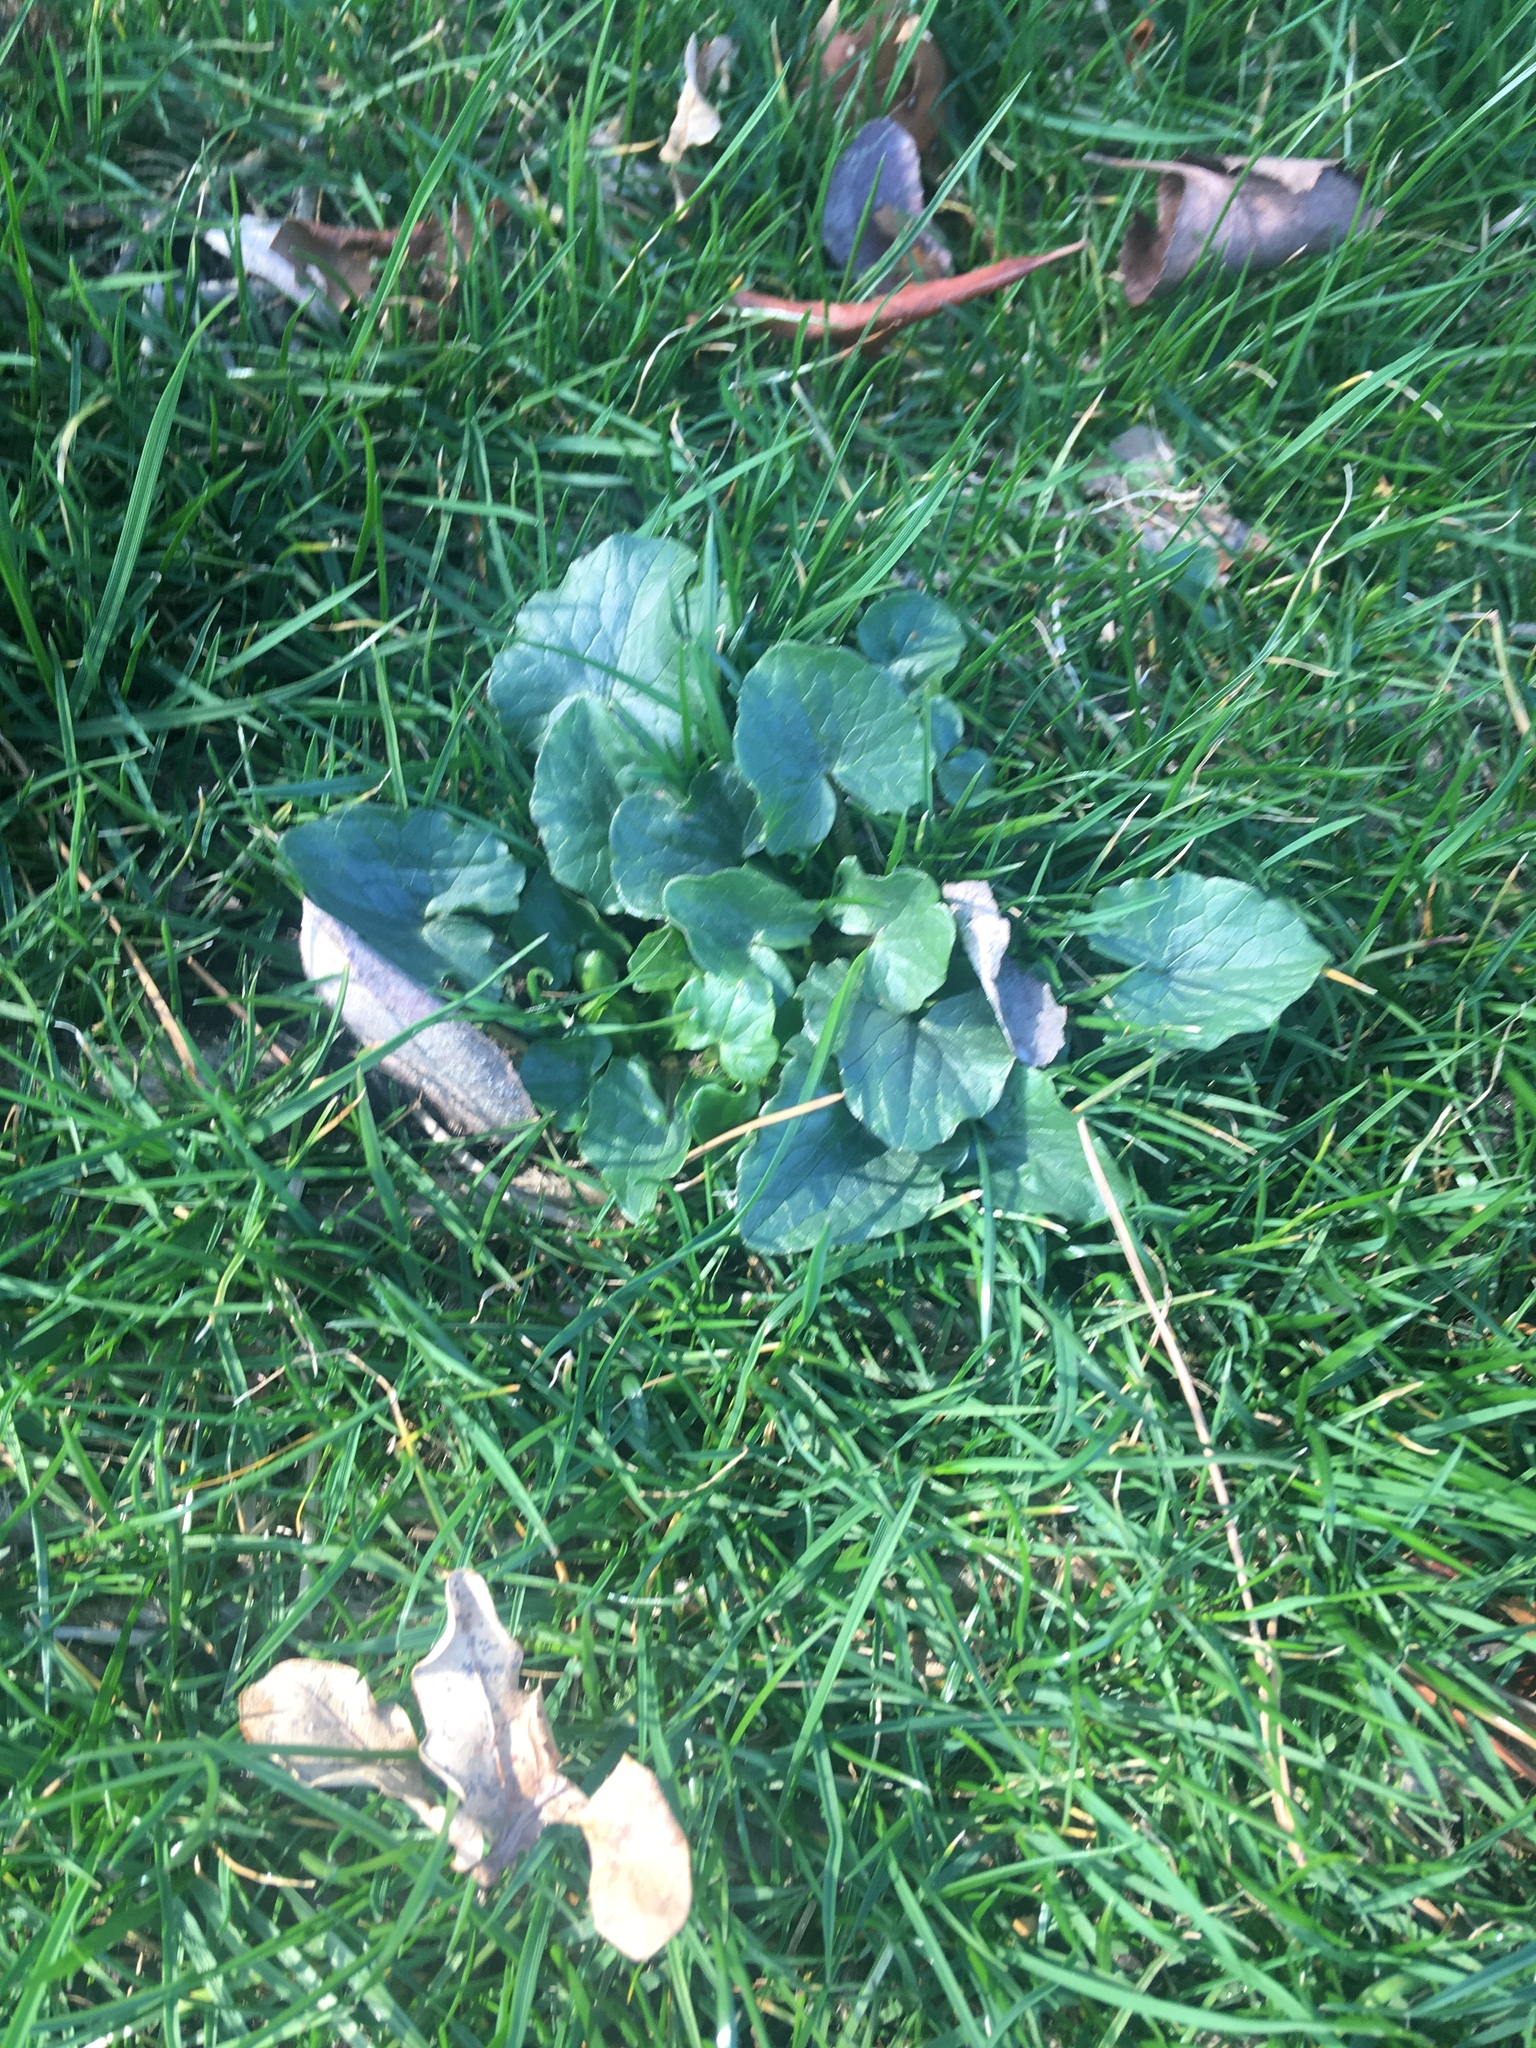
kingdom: Plantae
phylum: Tracheophyta
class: Magnoliopsida
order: Ranunculales
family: Ranunculaceae
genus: Ficaria
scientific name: Ficaria verna
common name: Lesser celandine
